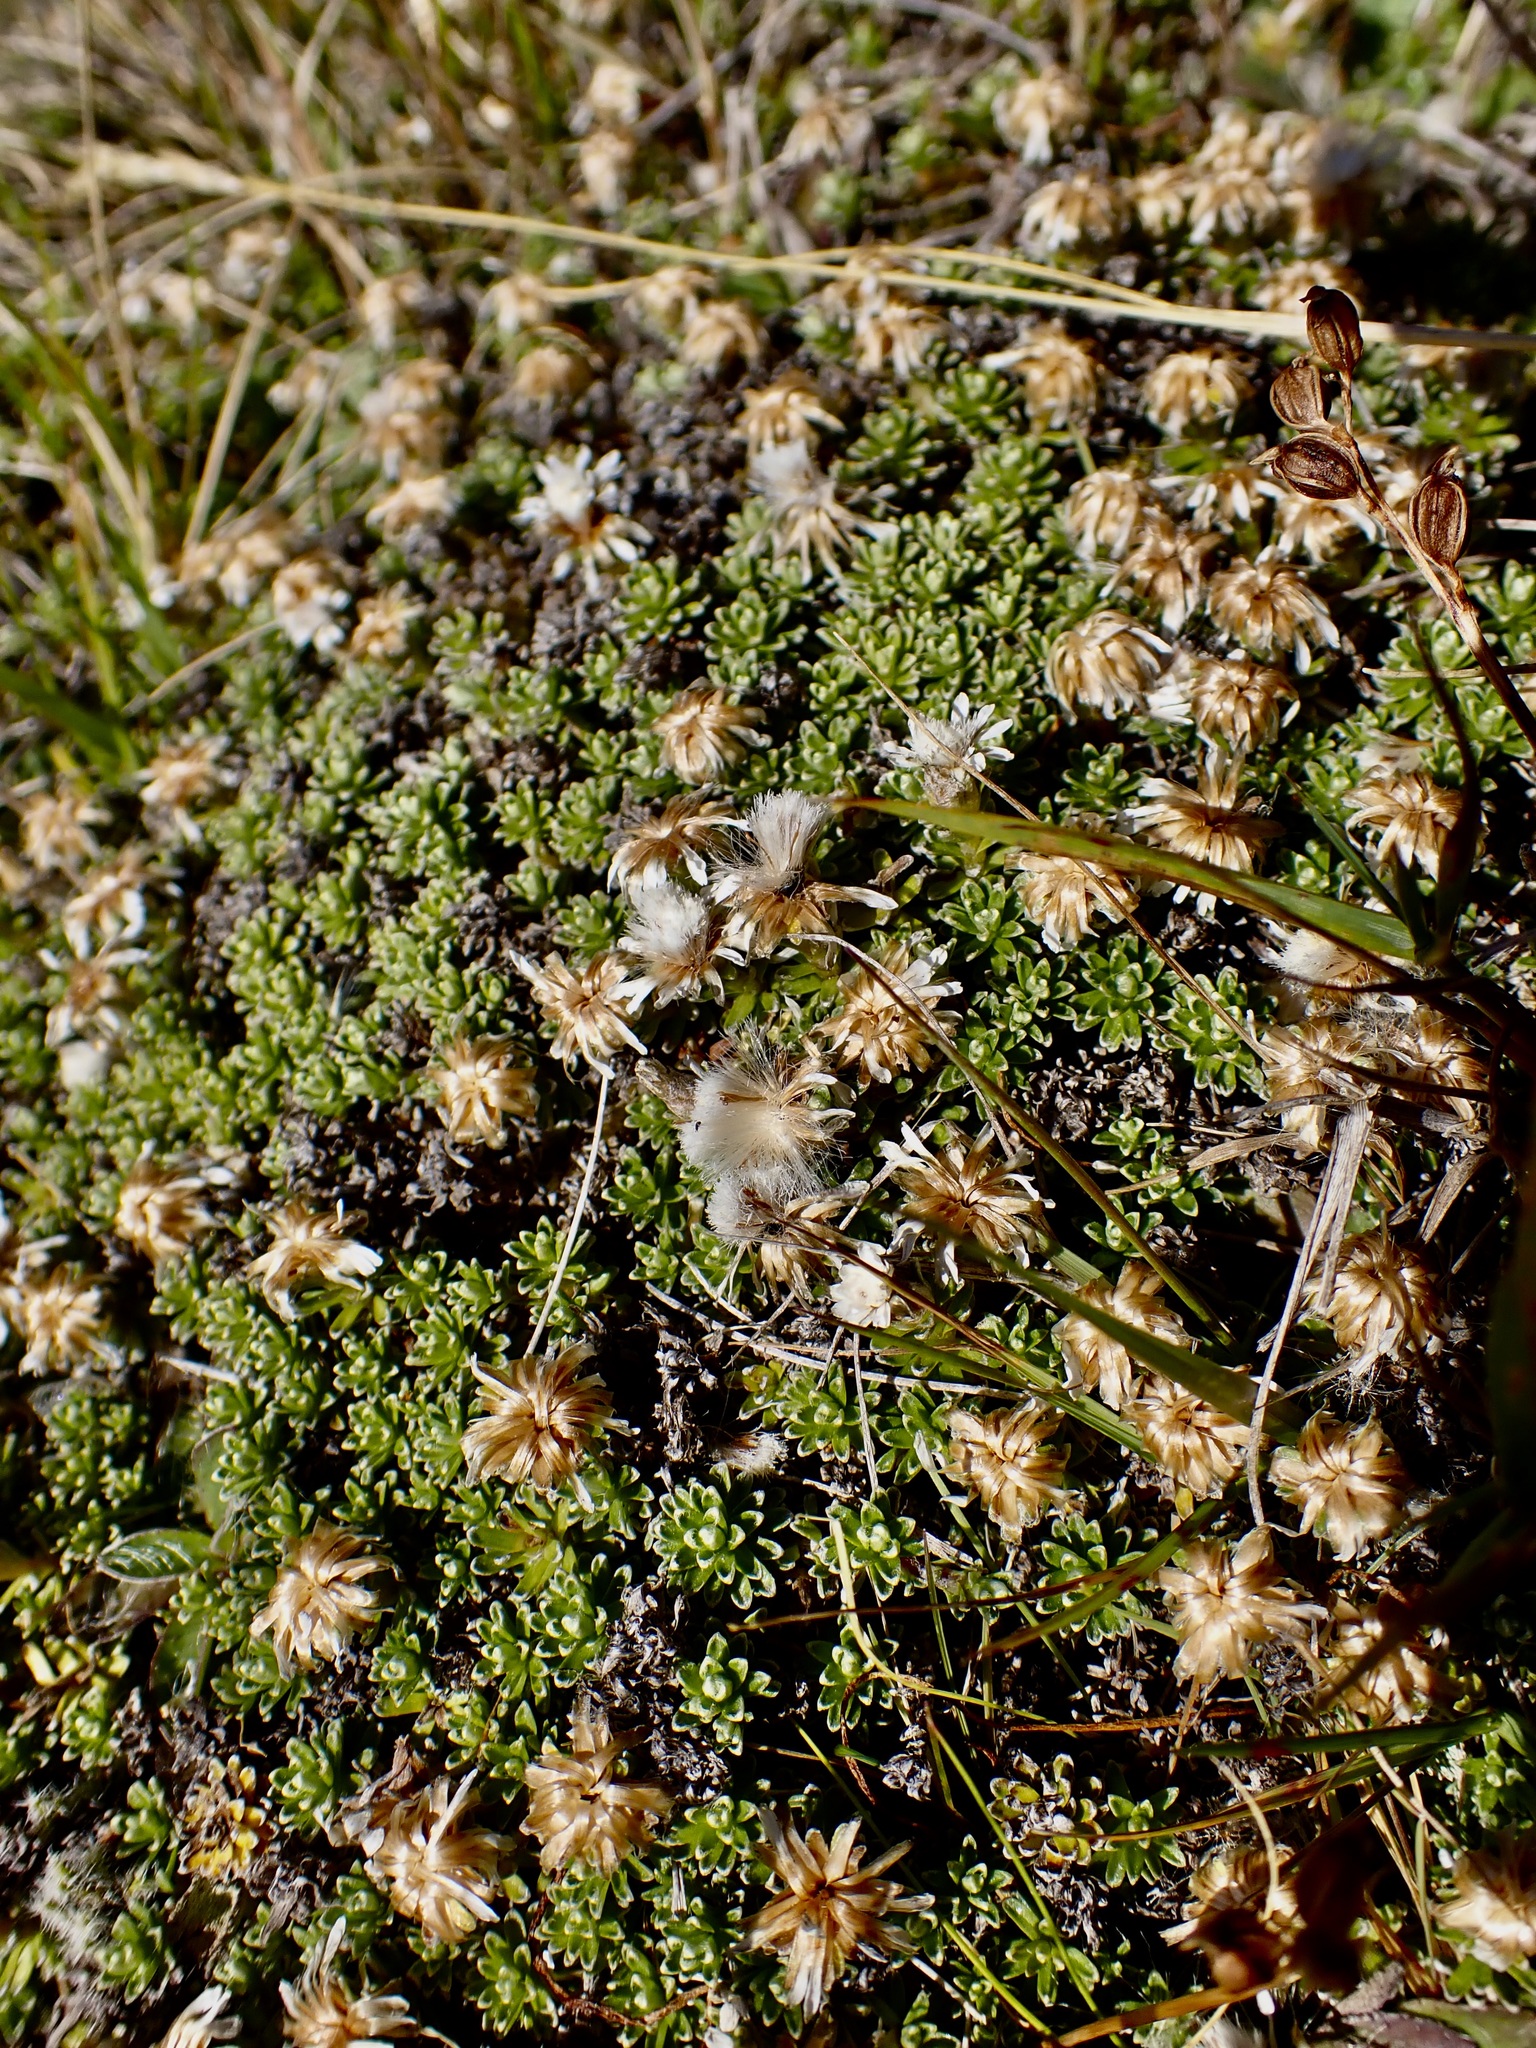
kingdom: Plantae
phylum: Tracheophyta
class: Magnoliopsida
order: Asterales
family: Asteraceae
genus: Raoulia
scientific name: Raoulia subsericea
